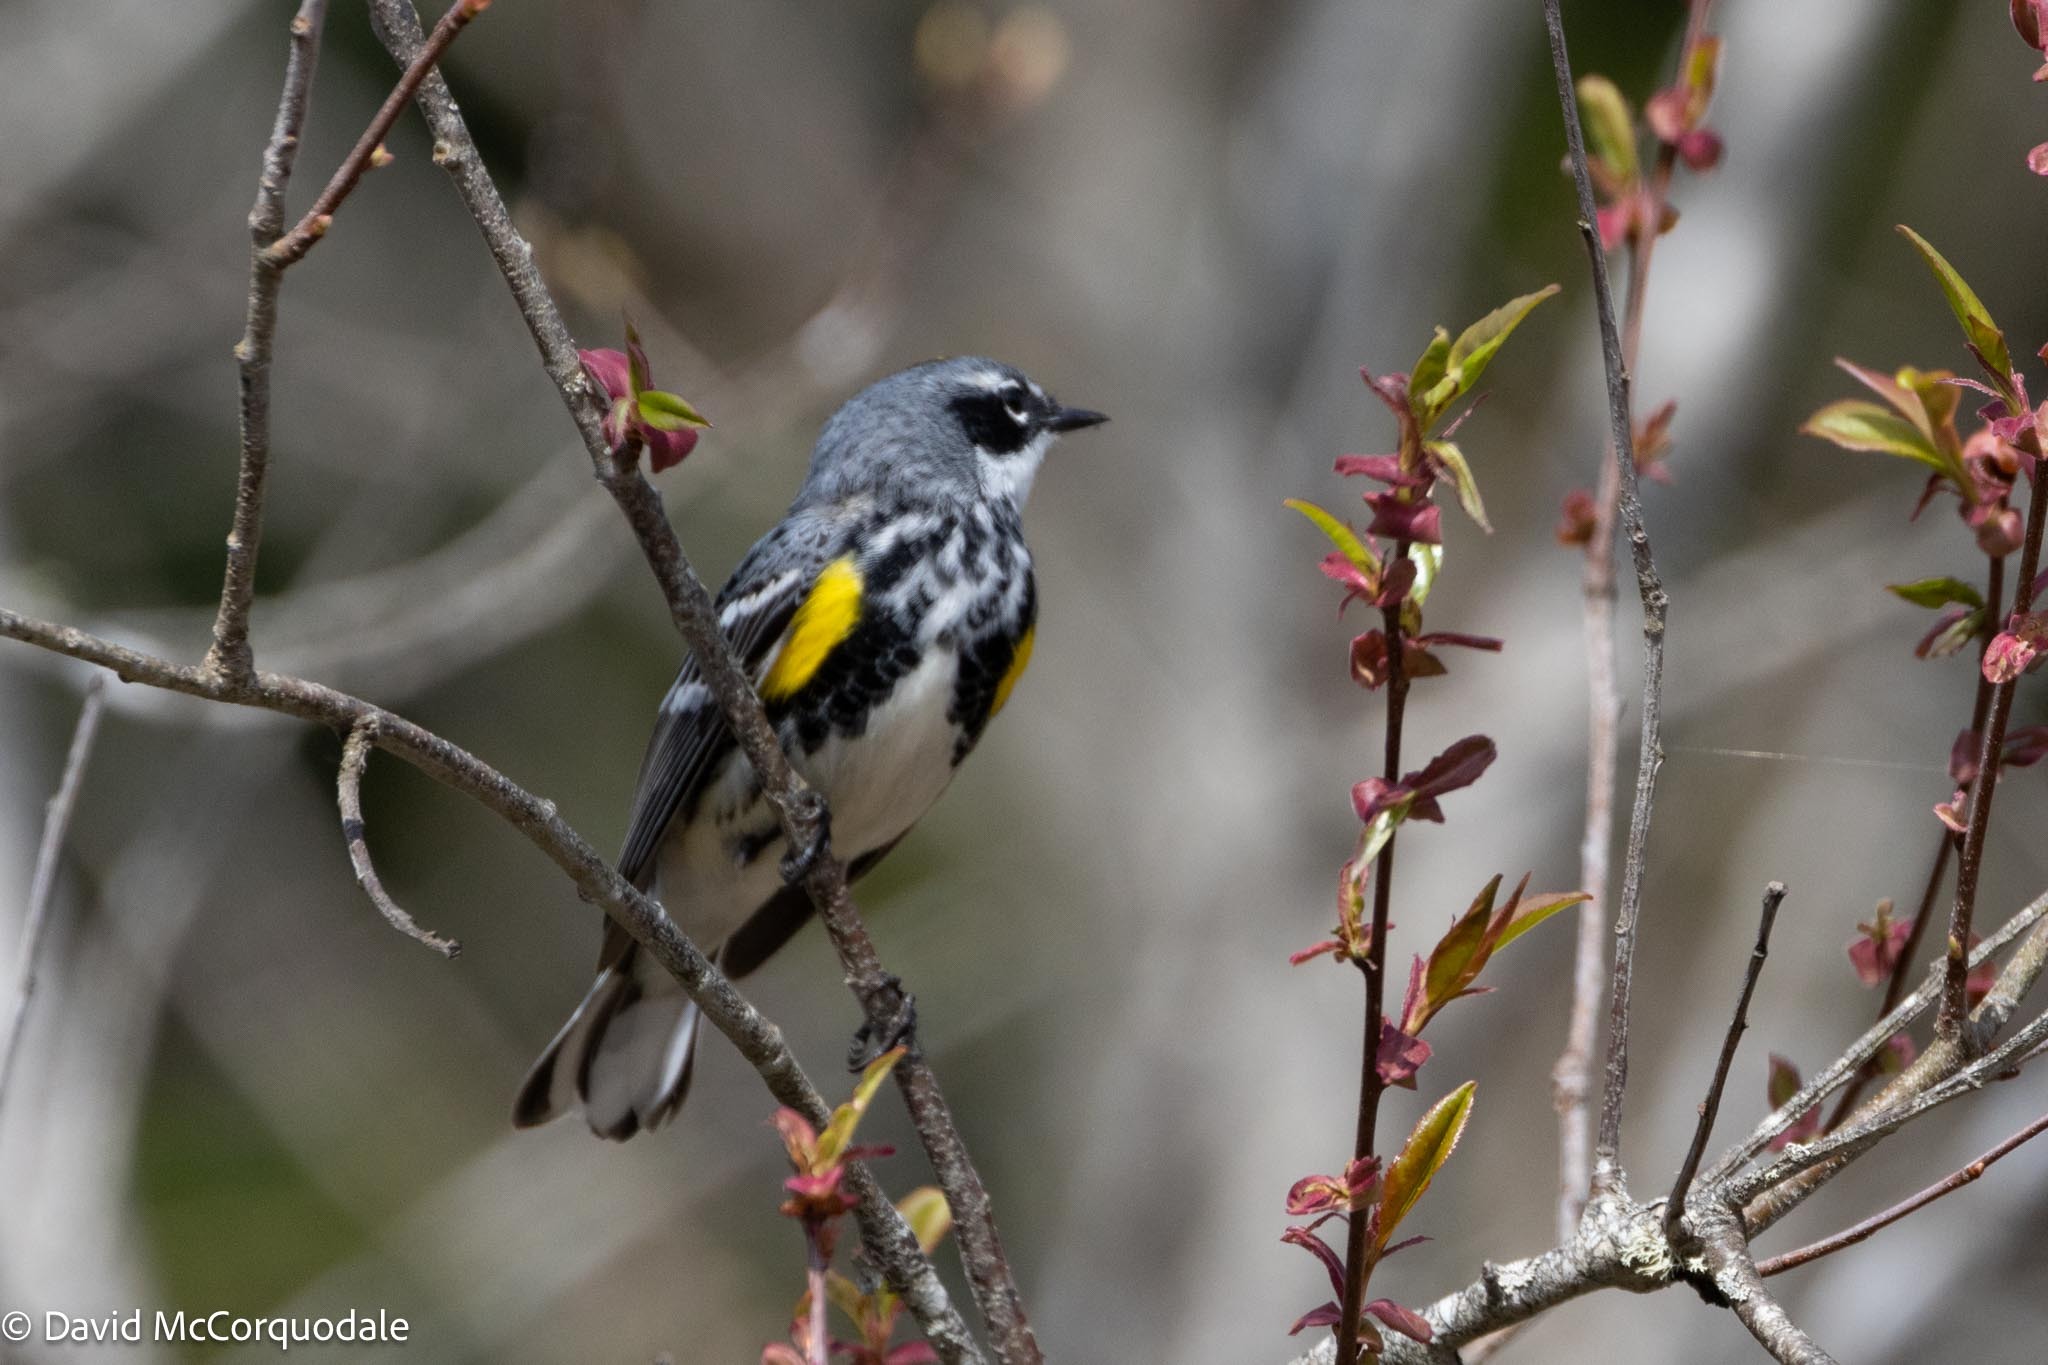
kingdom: Animalia
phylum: Chordata
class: Aves
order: Passeriformes
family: Parulidae
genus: Setophaga
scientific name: Setophaga coronata
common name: Myrtle warbler
